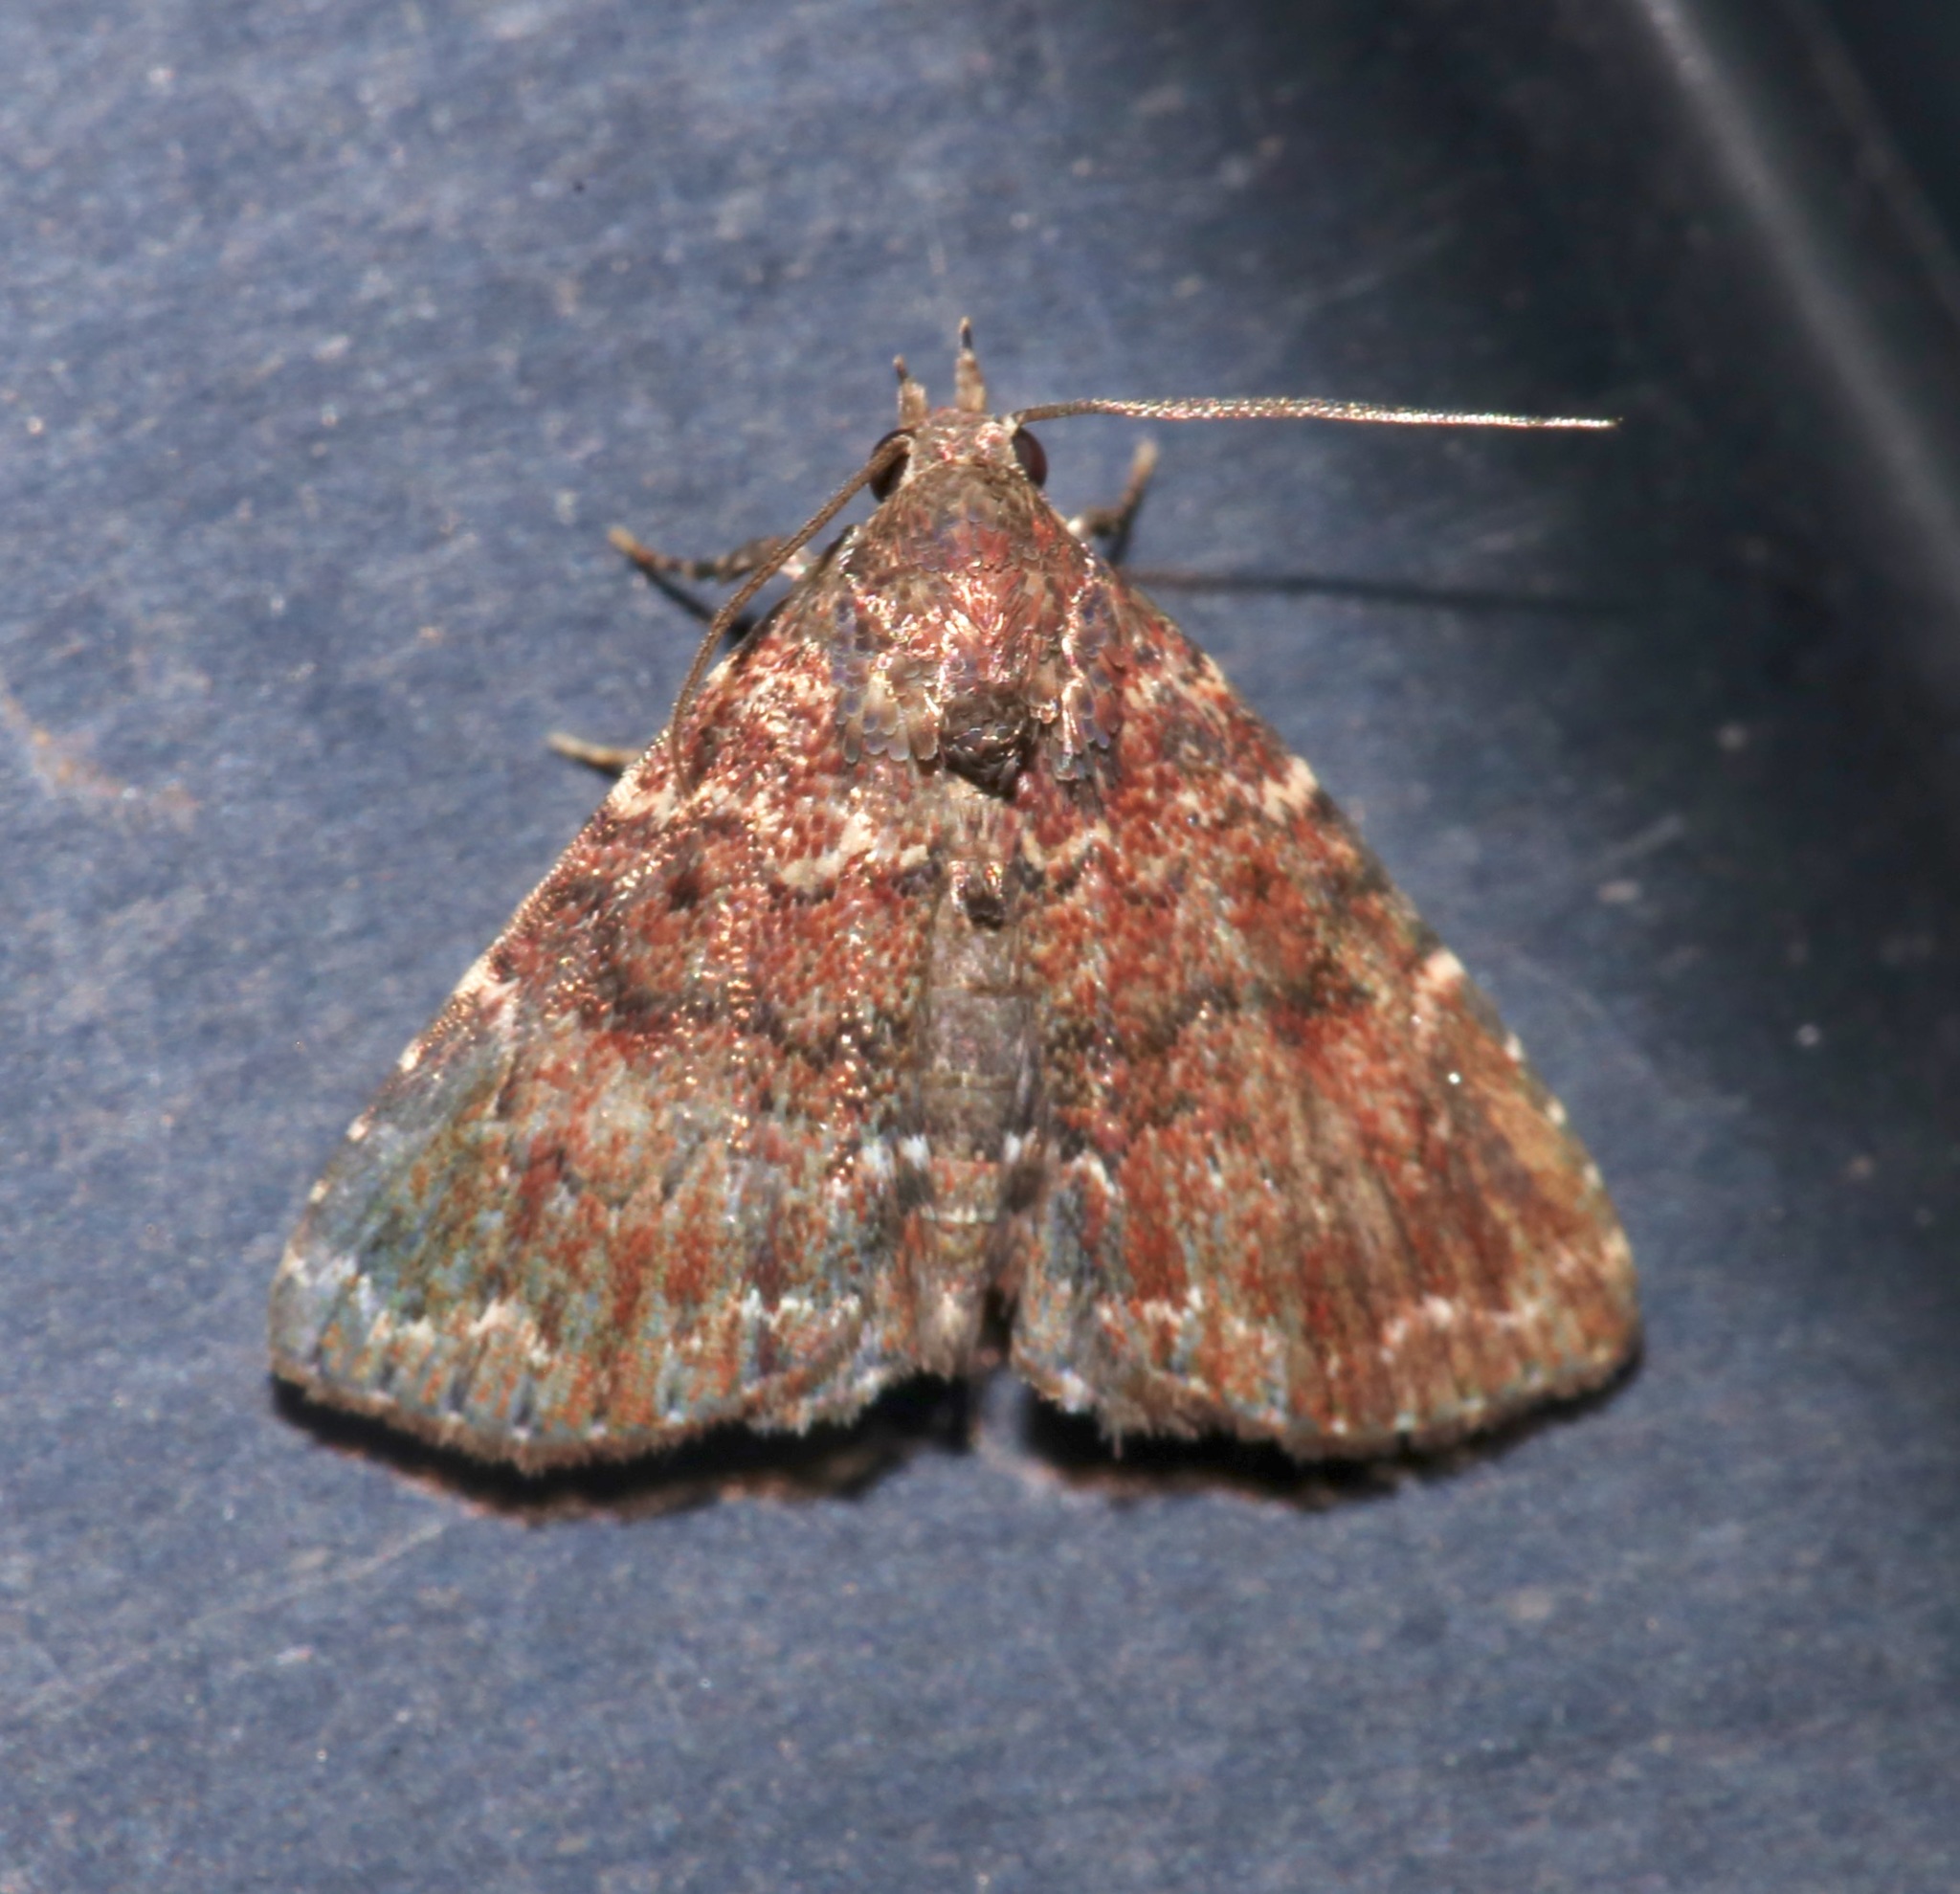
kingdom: Animalia
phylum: Arthropoda
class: Insecta
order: Lepidoptera
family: Erebidae
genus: Metalectra
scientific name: Metalectra richardsi
